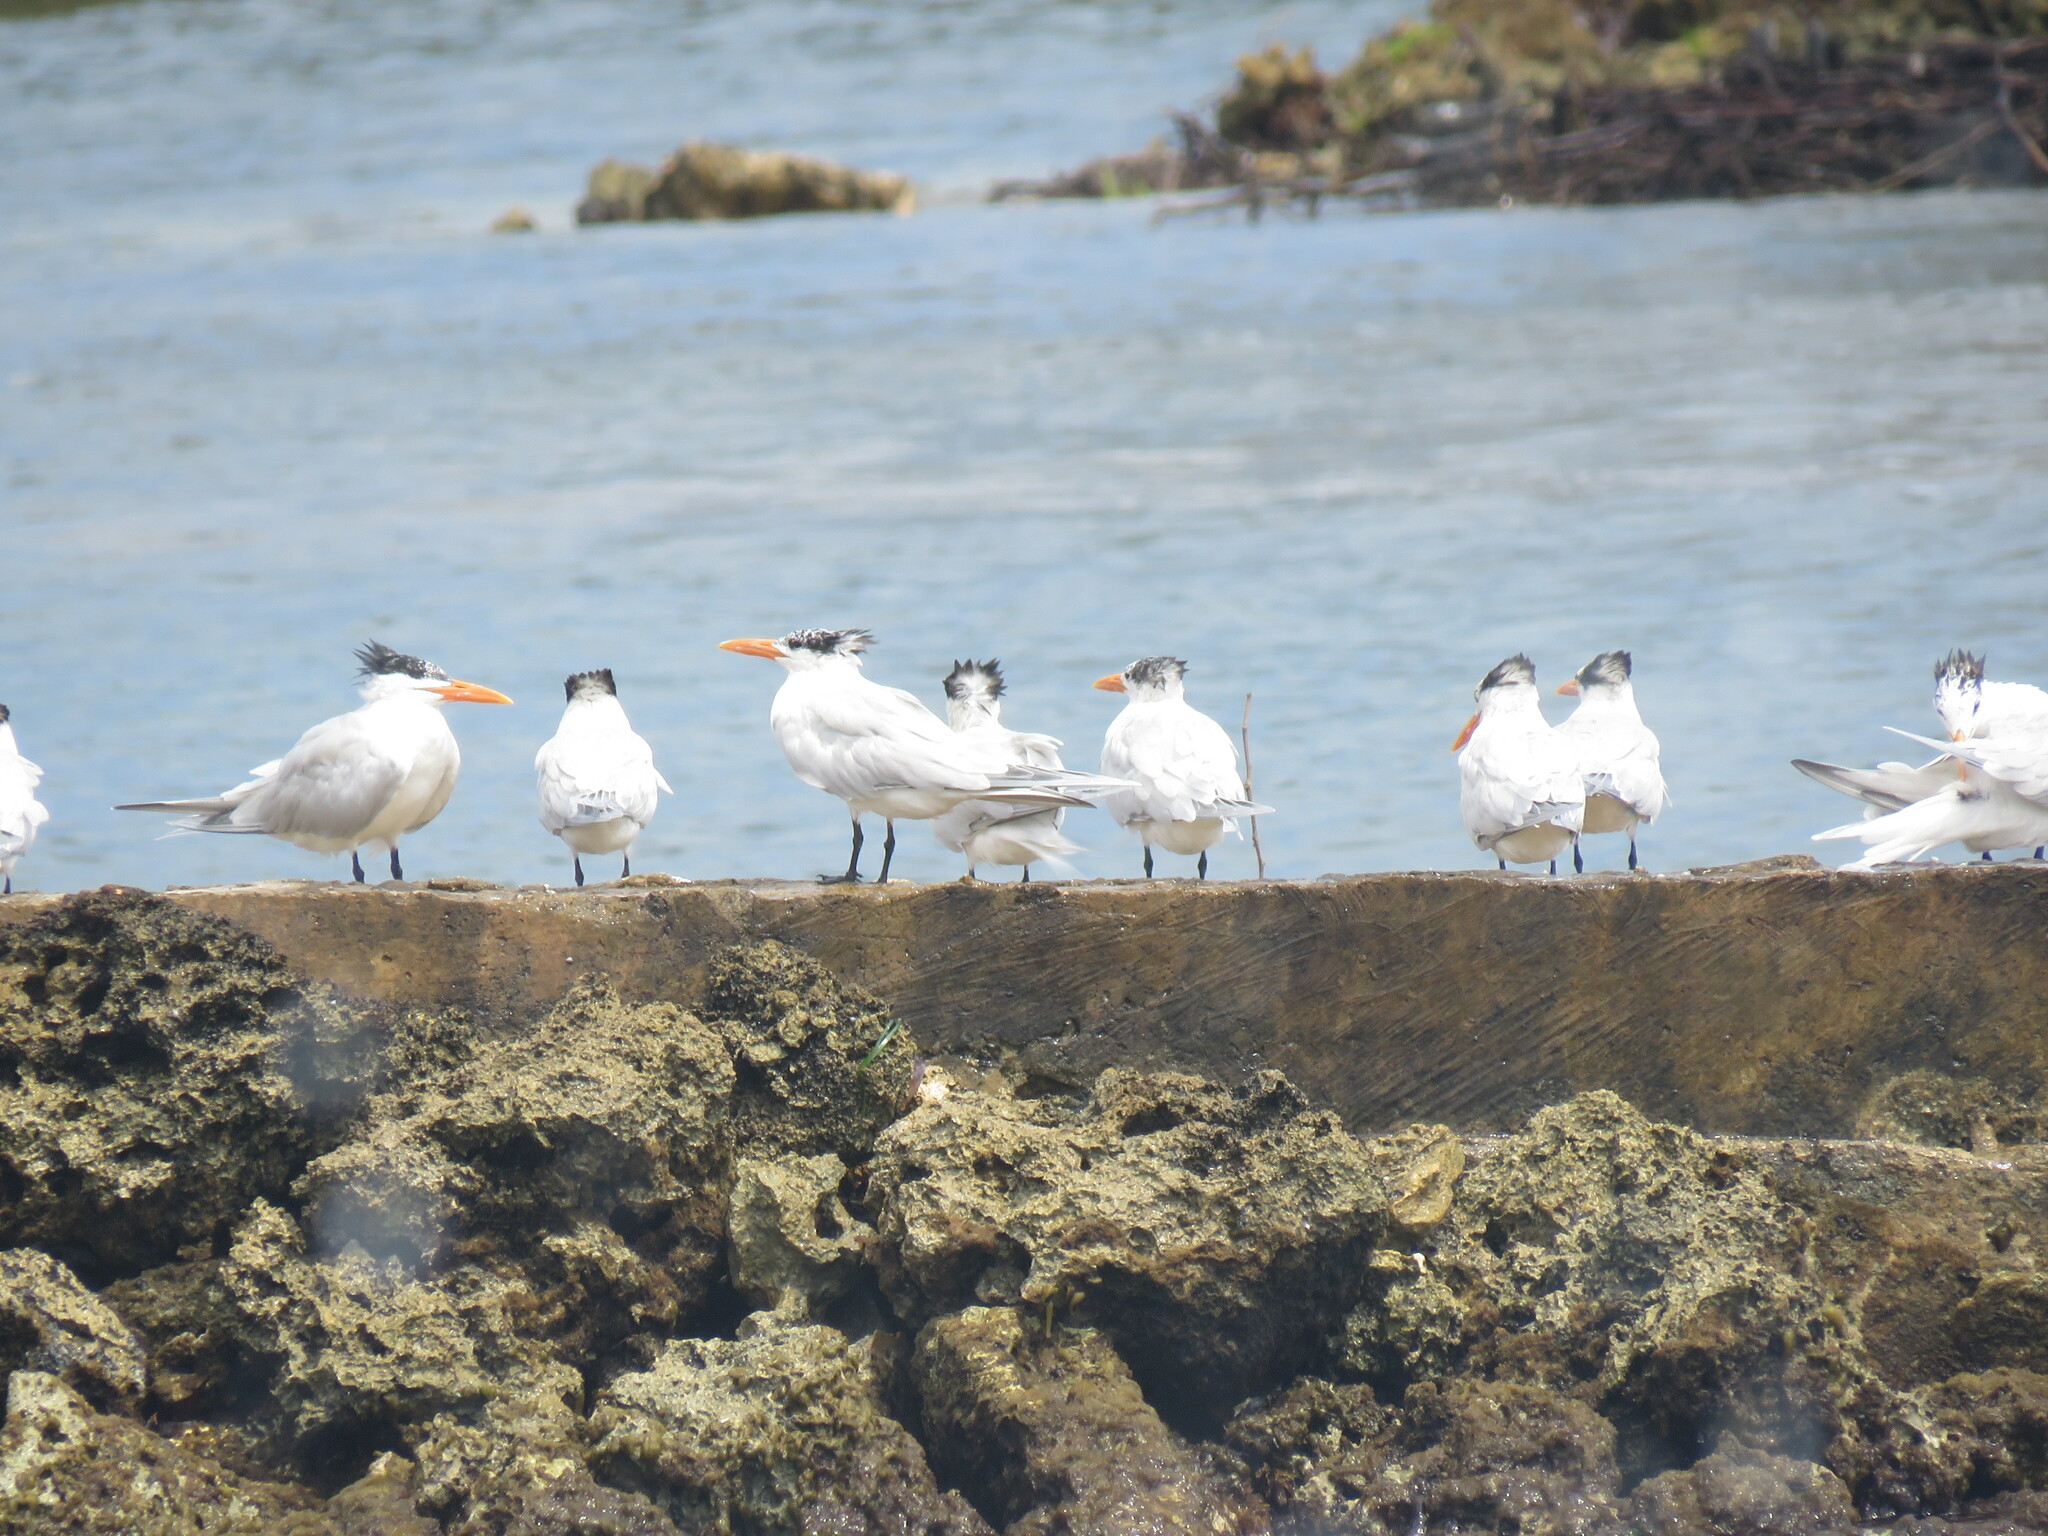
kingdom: Animalia
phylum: Chordata
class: Aves
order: Charadriiformes
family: Laridae
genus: Thalasseus
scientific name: Thalasseus maximus
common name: Royal tern
